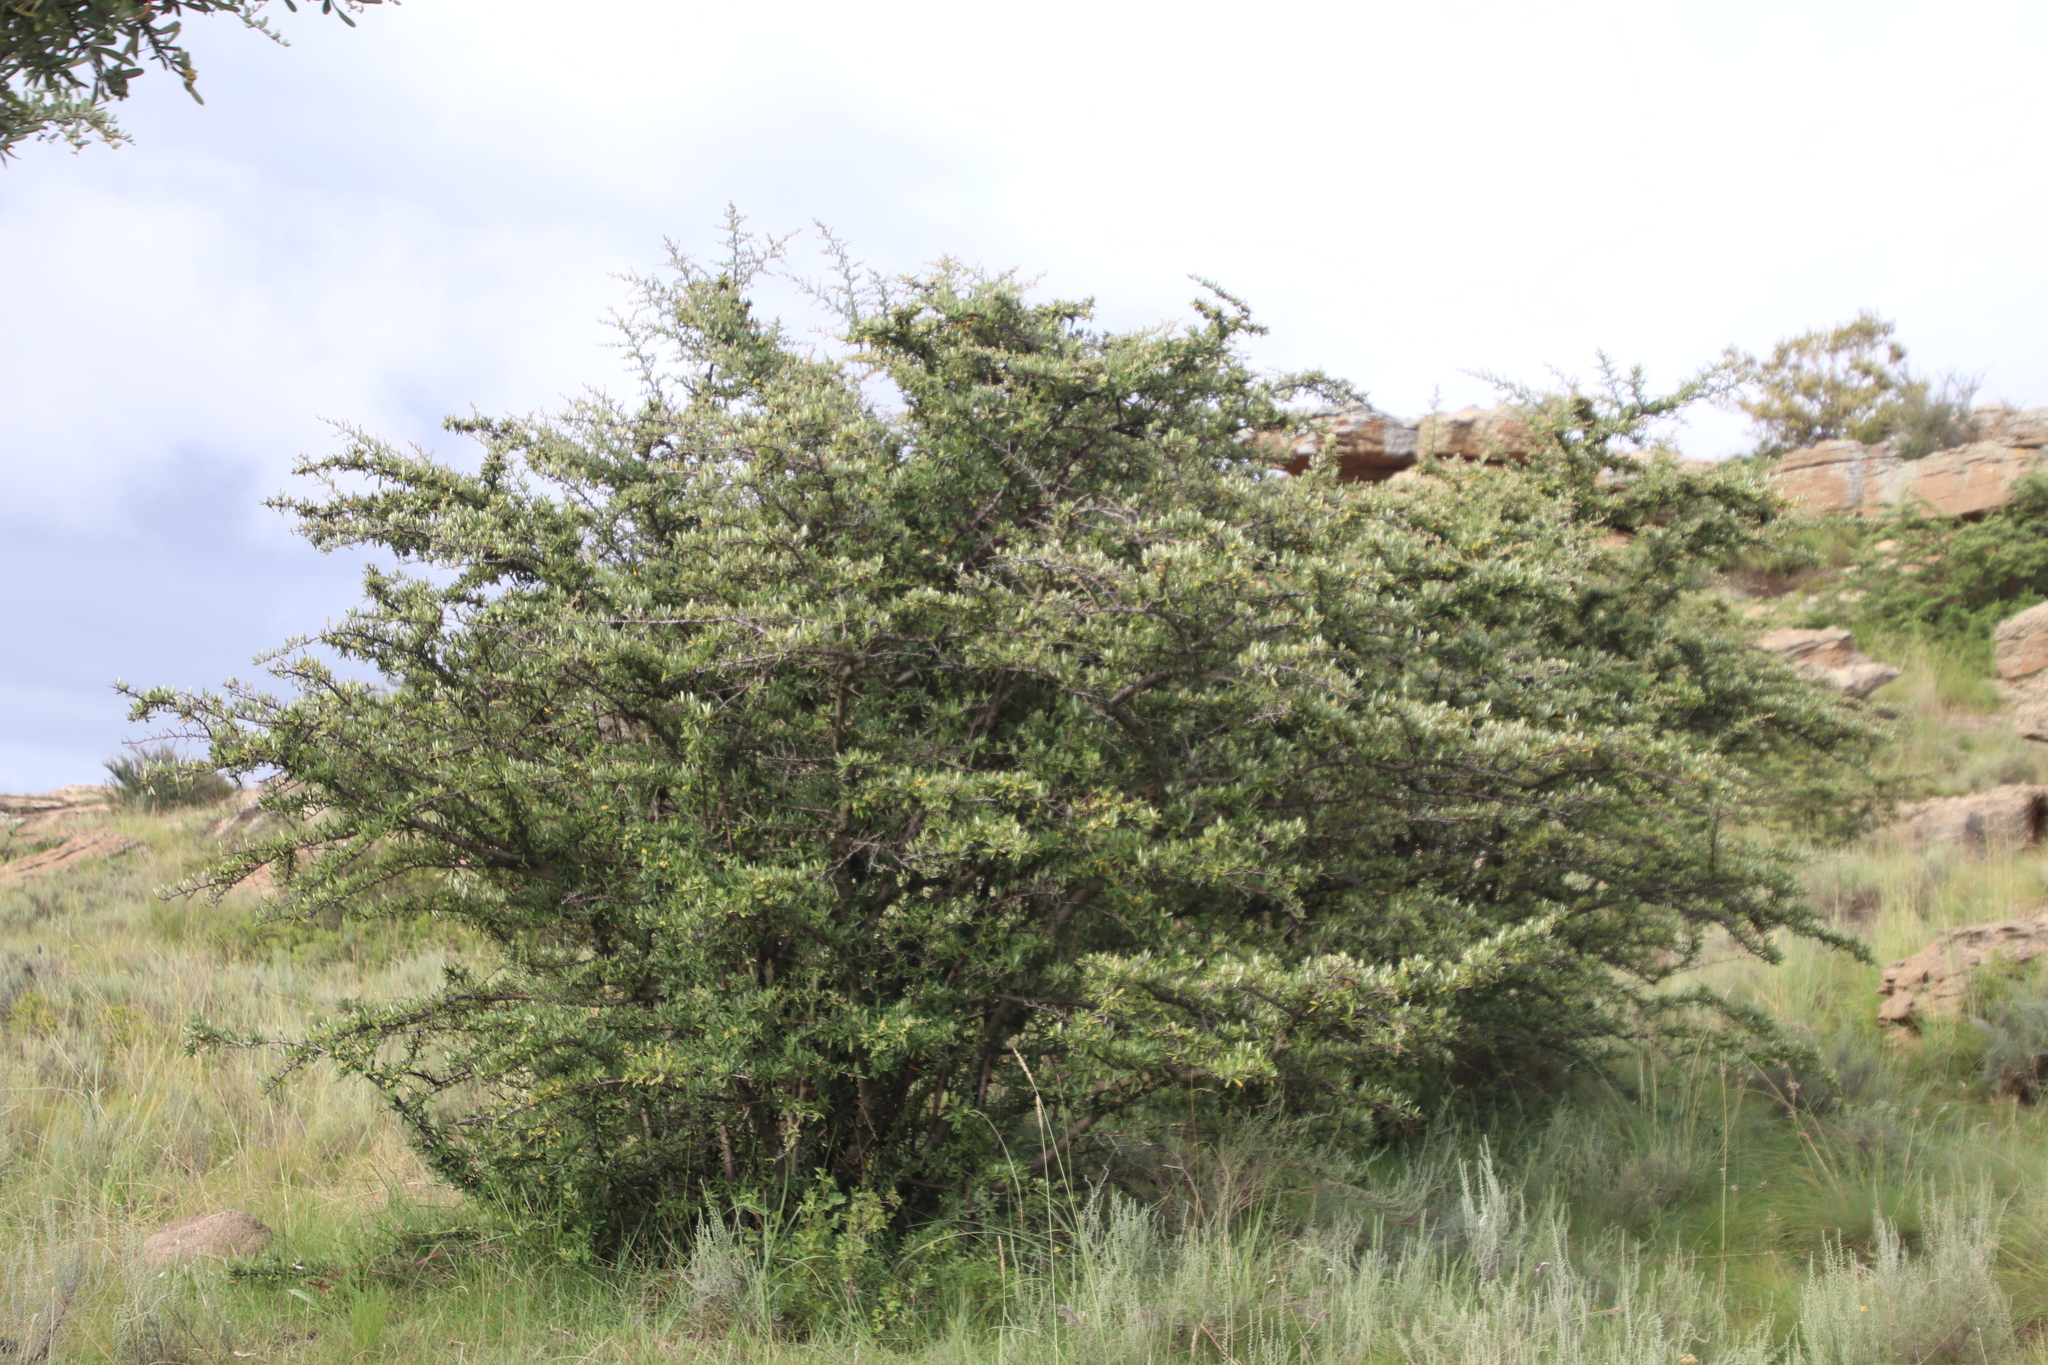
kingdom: Plantae
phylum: Tracheophyta
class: Magnoliopsida
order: Rosales
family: Rosaceae
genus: Pyracantha
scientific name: Pyracantha angustifolia
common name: Narrowleaf firethorn
